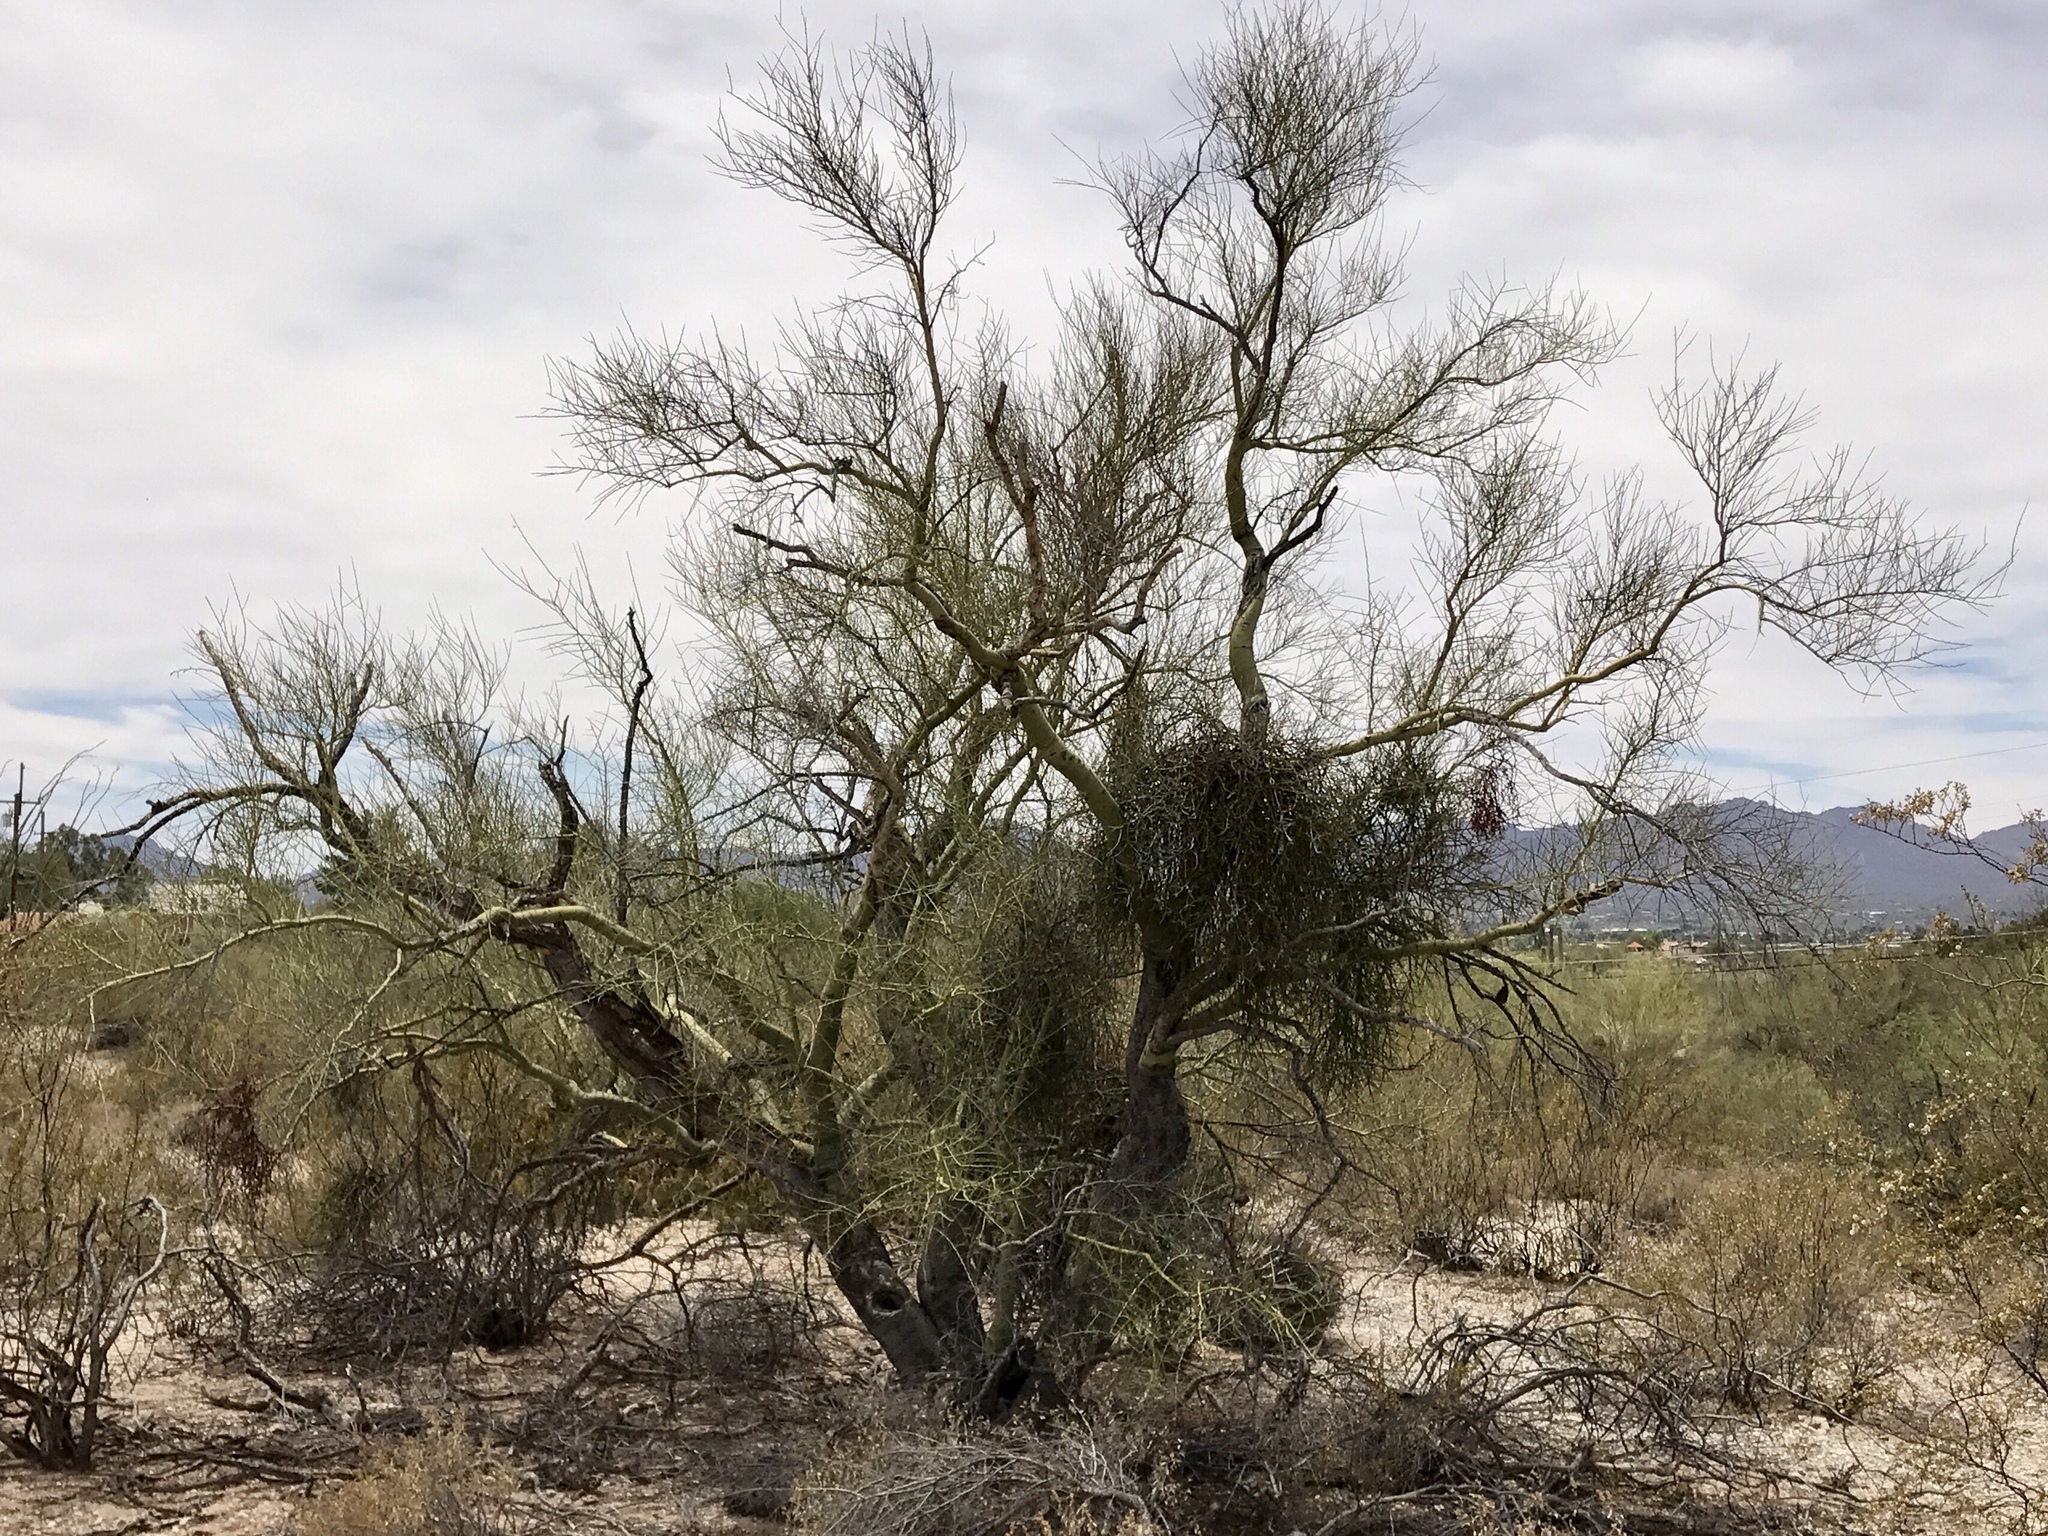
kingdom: Plantae
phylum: Tracheophyta
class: Magnoliopsida
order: Santalales
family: Viscaceae
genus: Phoradendron
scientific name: Phoradendron californicum
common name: Acacia mistletoe
